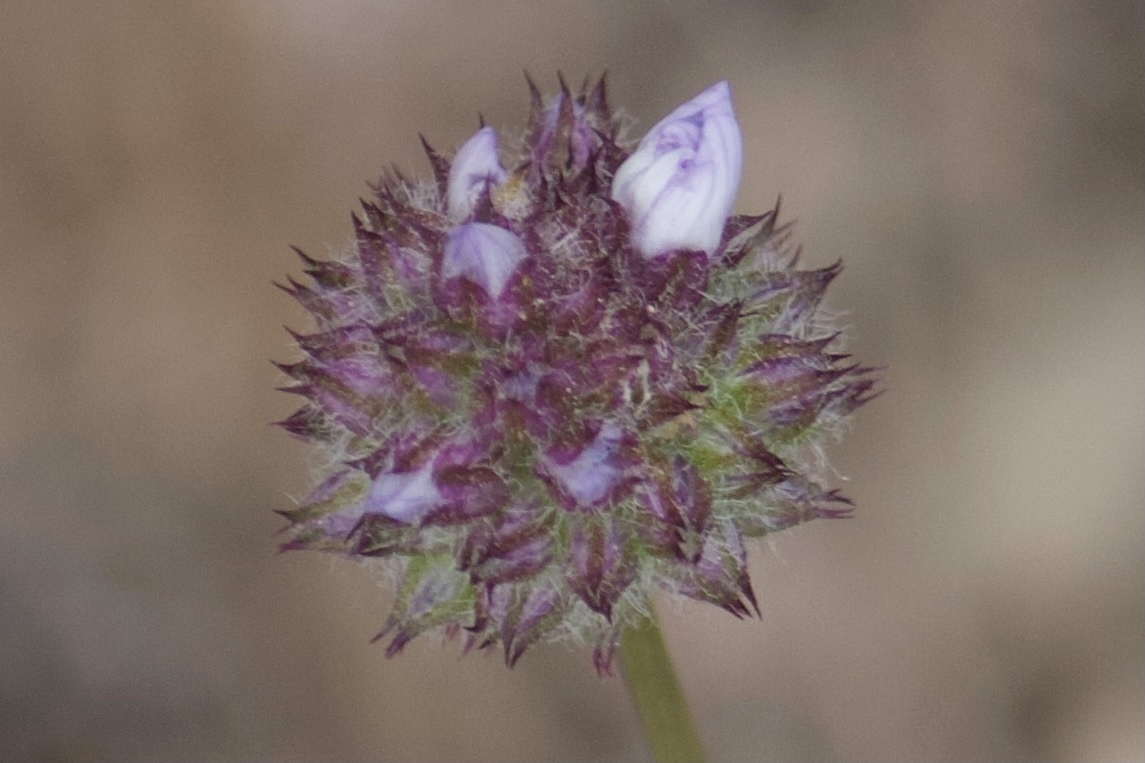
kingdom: Plantae
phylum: Tracheophyta
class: Magnoliopsida
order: Ericales
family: Polemoniaceae
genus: Gilia
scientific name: Gilia capitata
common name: Bluehead gilia
